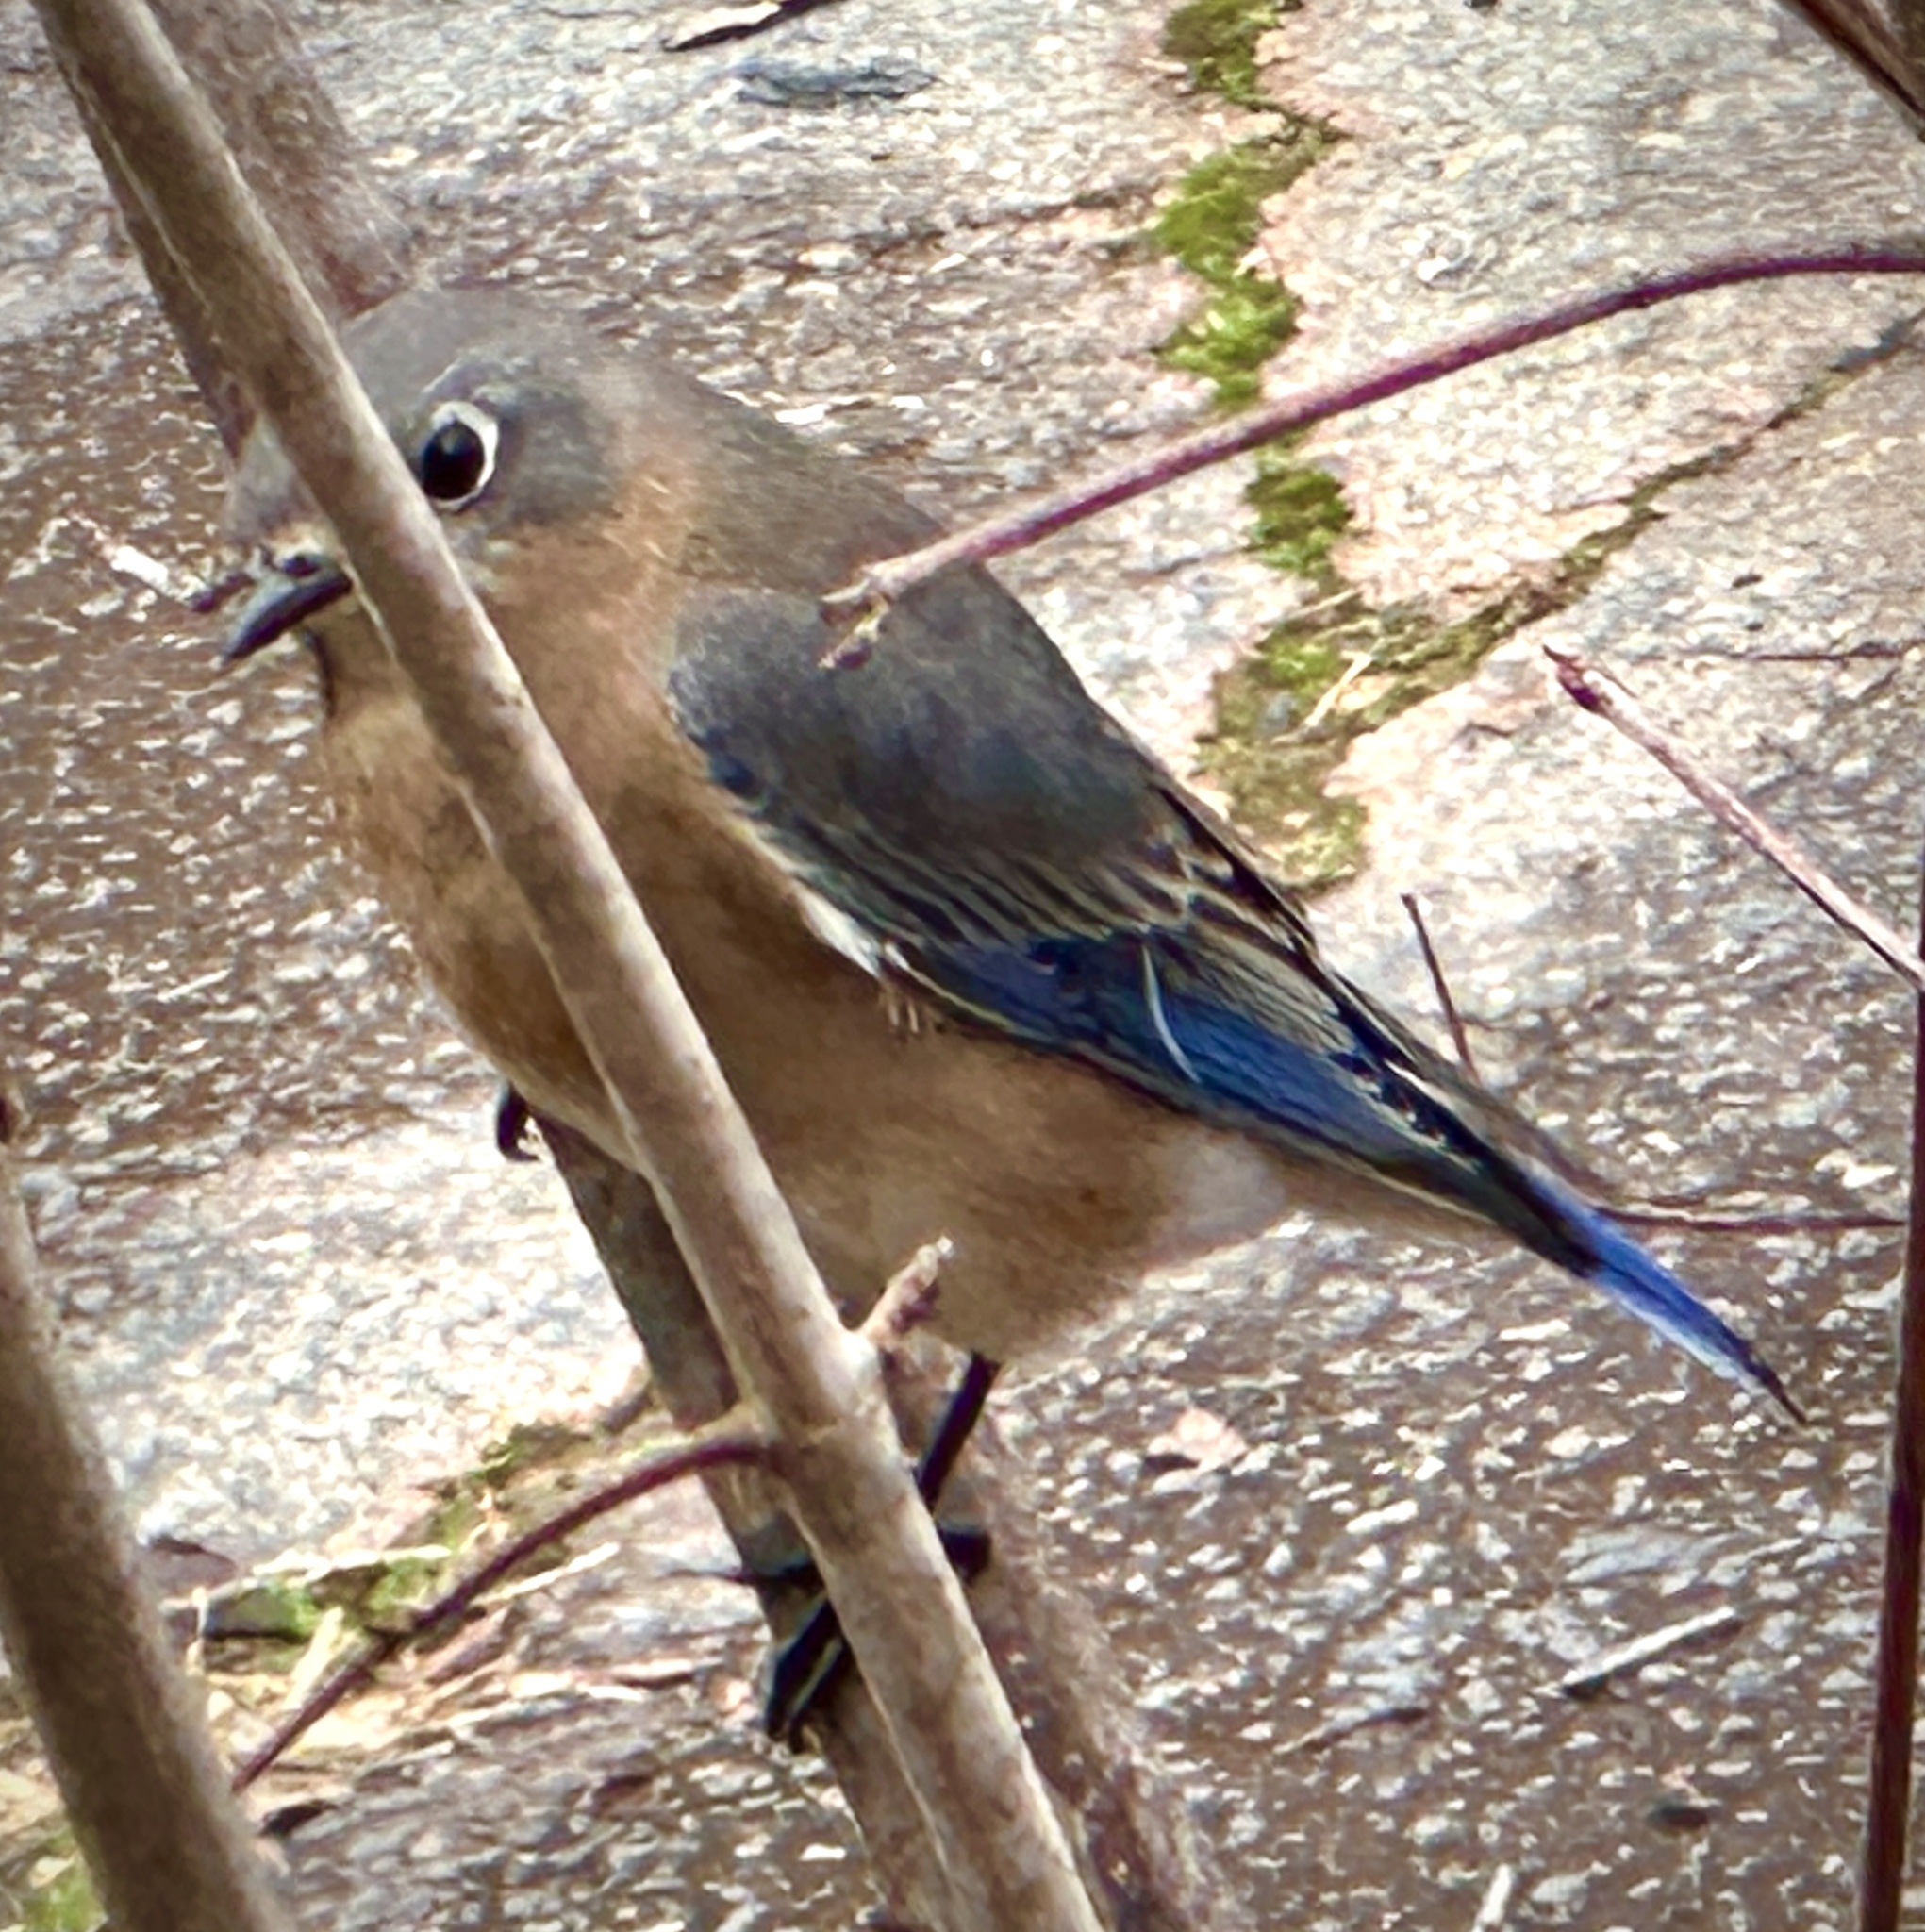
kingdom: Animalia
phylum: Chordata
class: Aves
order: Passeriformes
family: Turdidae
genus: Sialia
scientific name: Sialia sialis
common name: Eastern bluebird
